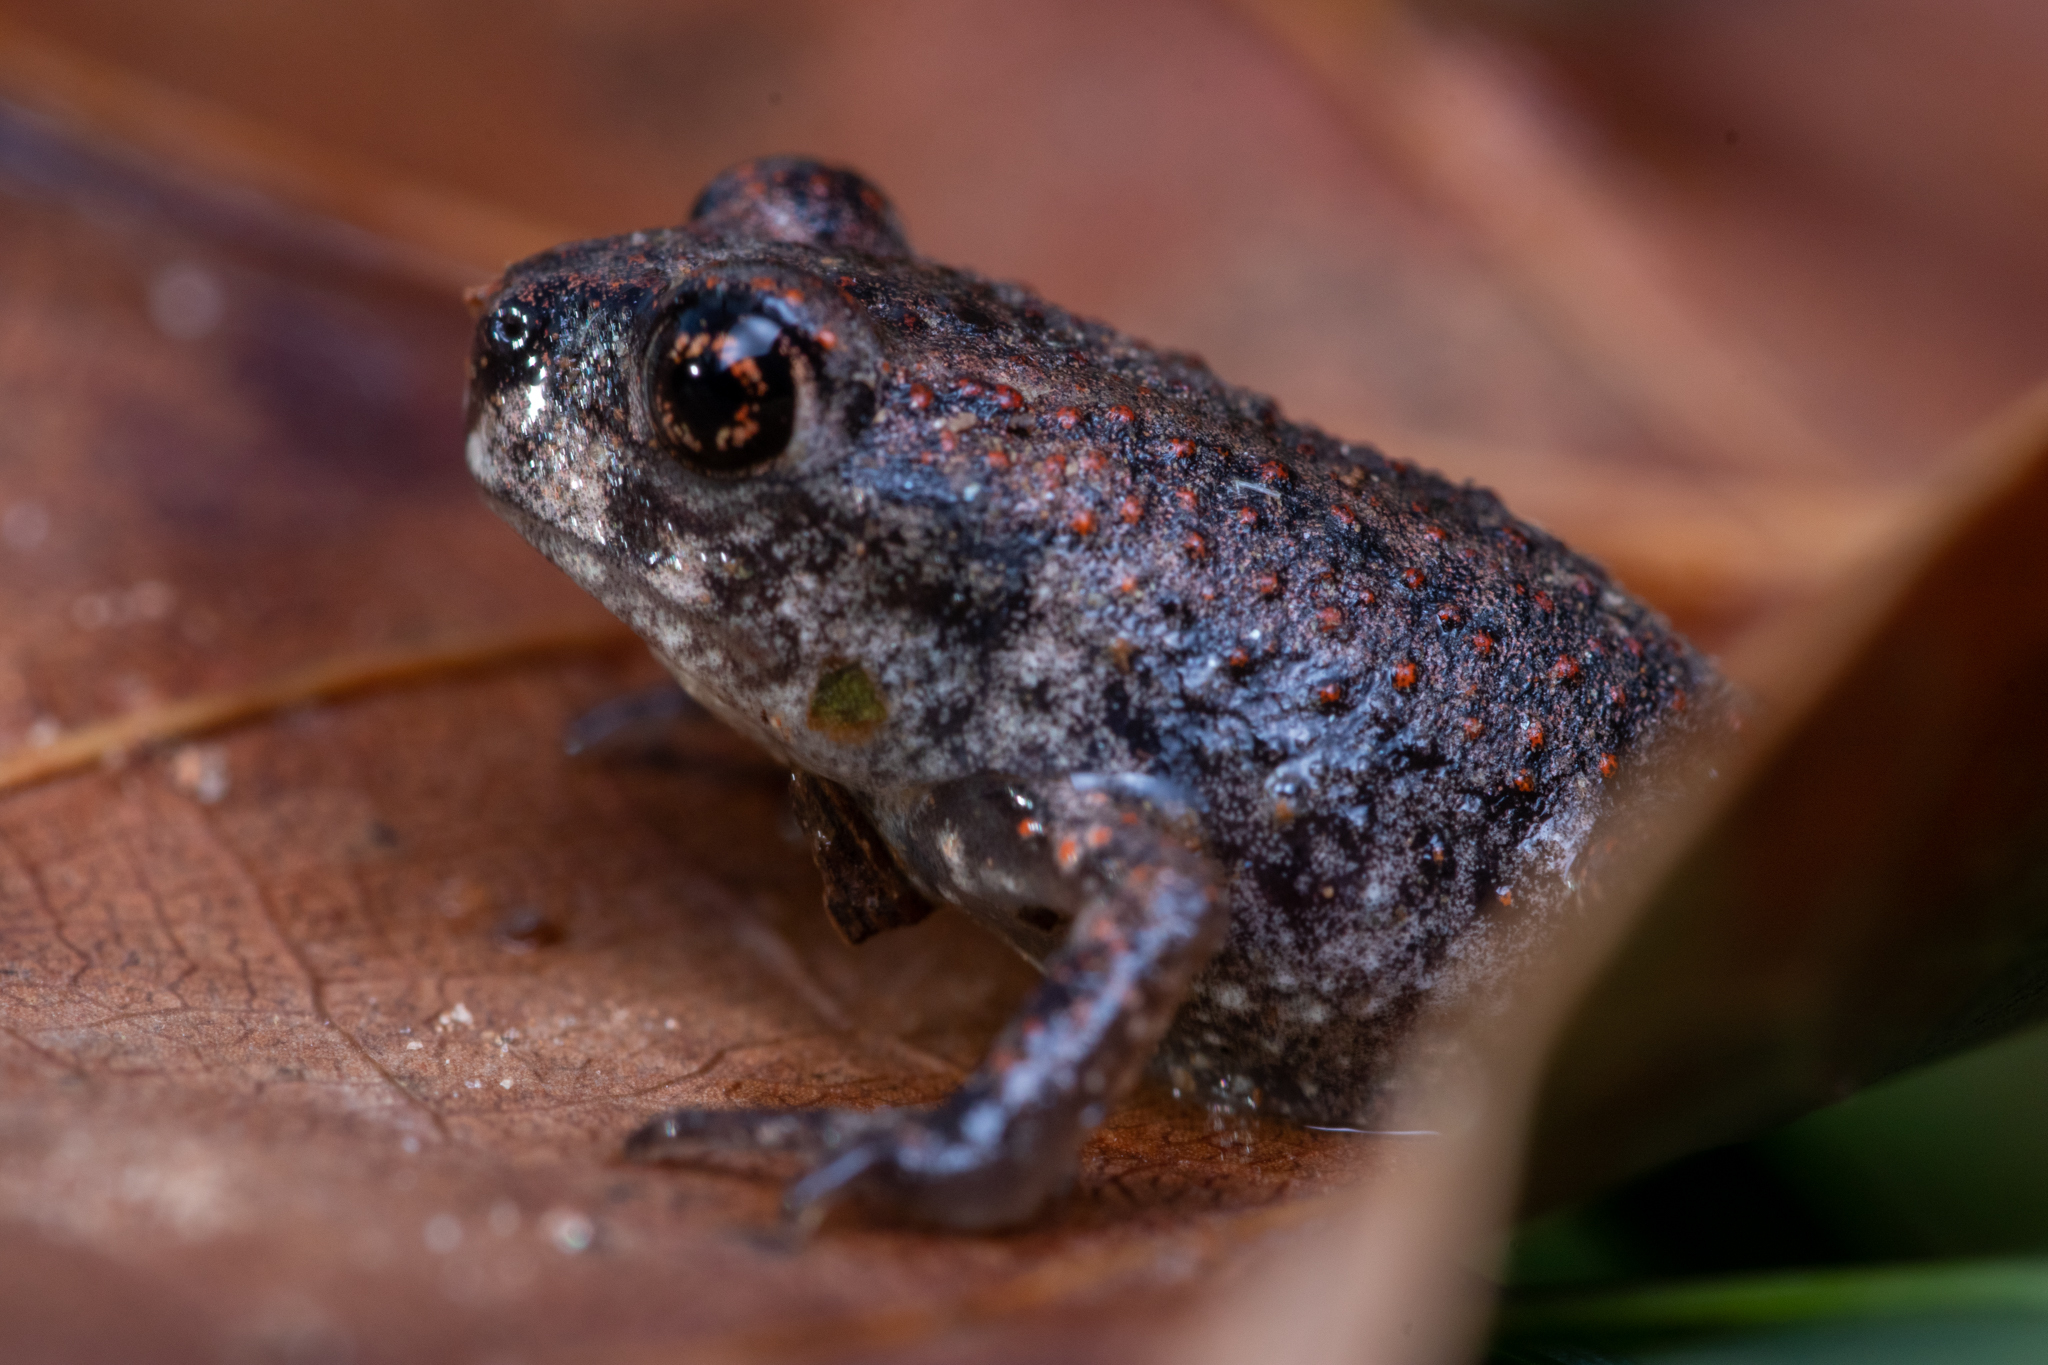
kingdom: Animalia
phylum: Chordata
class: Amphibia
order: Anura
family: Scaphiopodidae
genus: Scaphiopus
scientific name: Scaphiopus holbrookii
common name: Eastern spadefoot toad
